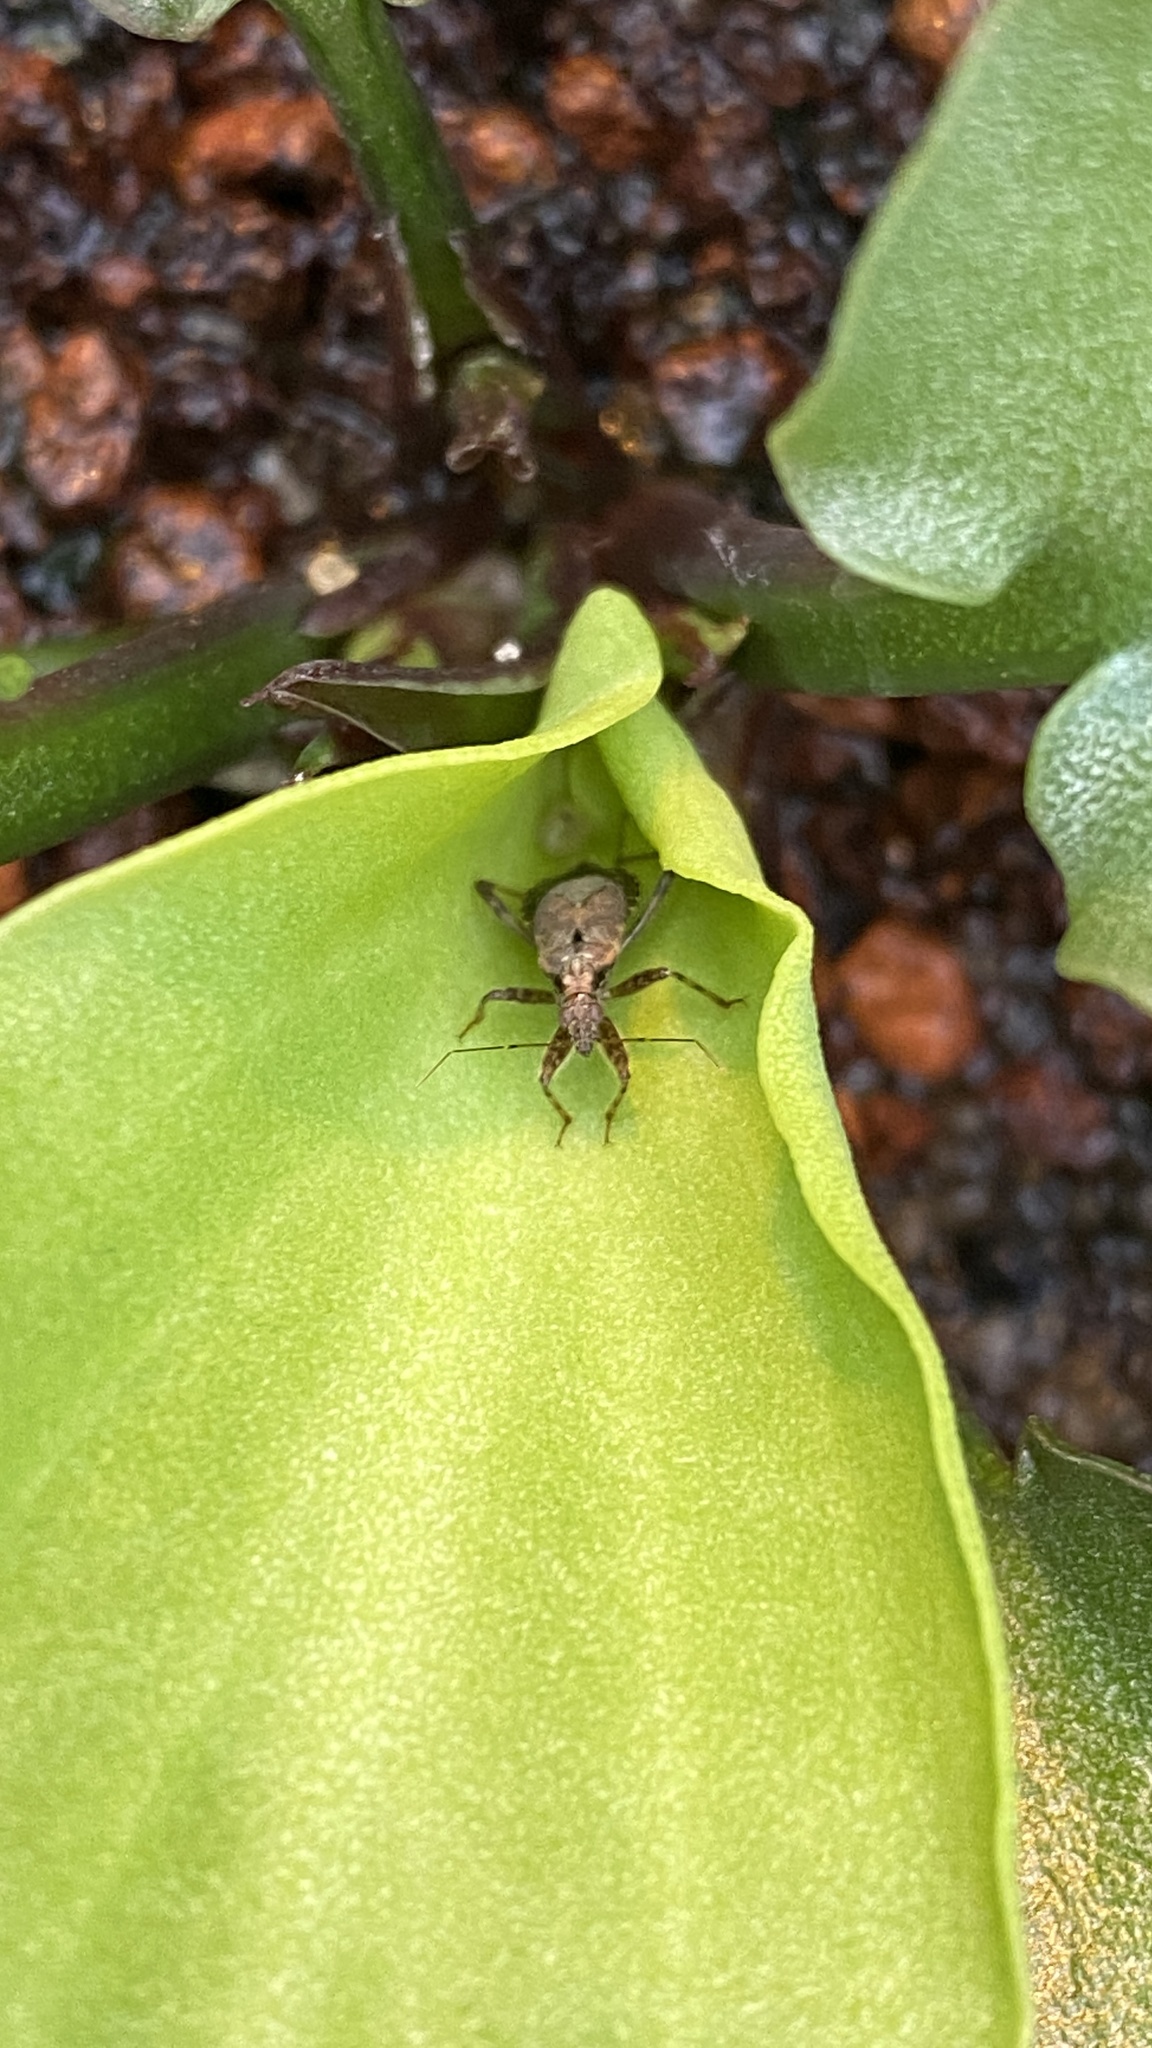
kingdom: Animalia
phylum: Arthropoda
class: Insecta
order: Hemiptera
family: Nabidae
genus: Himacerus
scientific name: Himacerus mirmicoides
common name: Ant damsel bug
